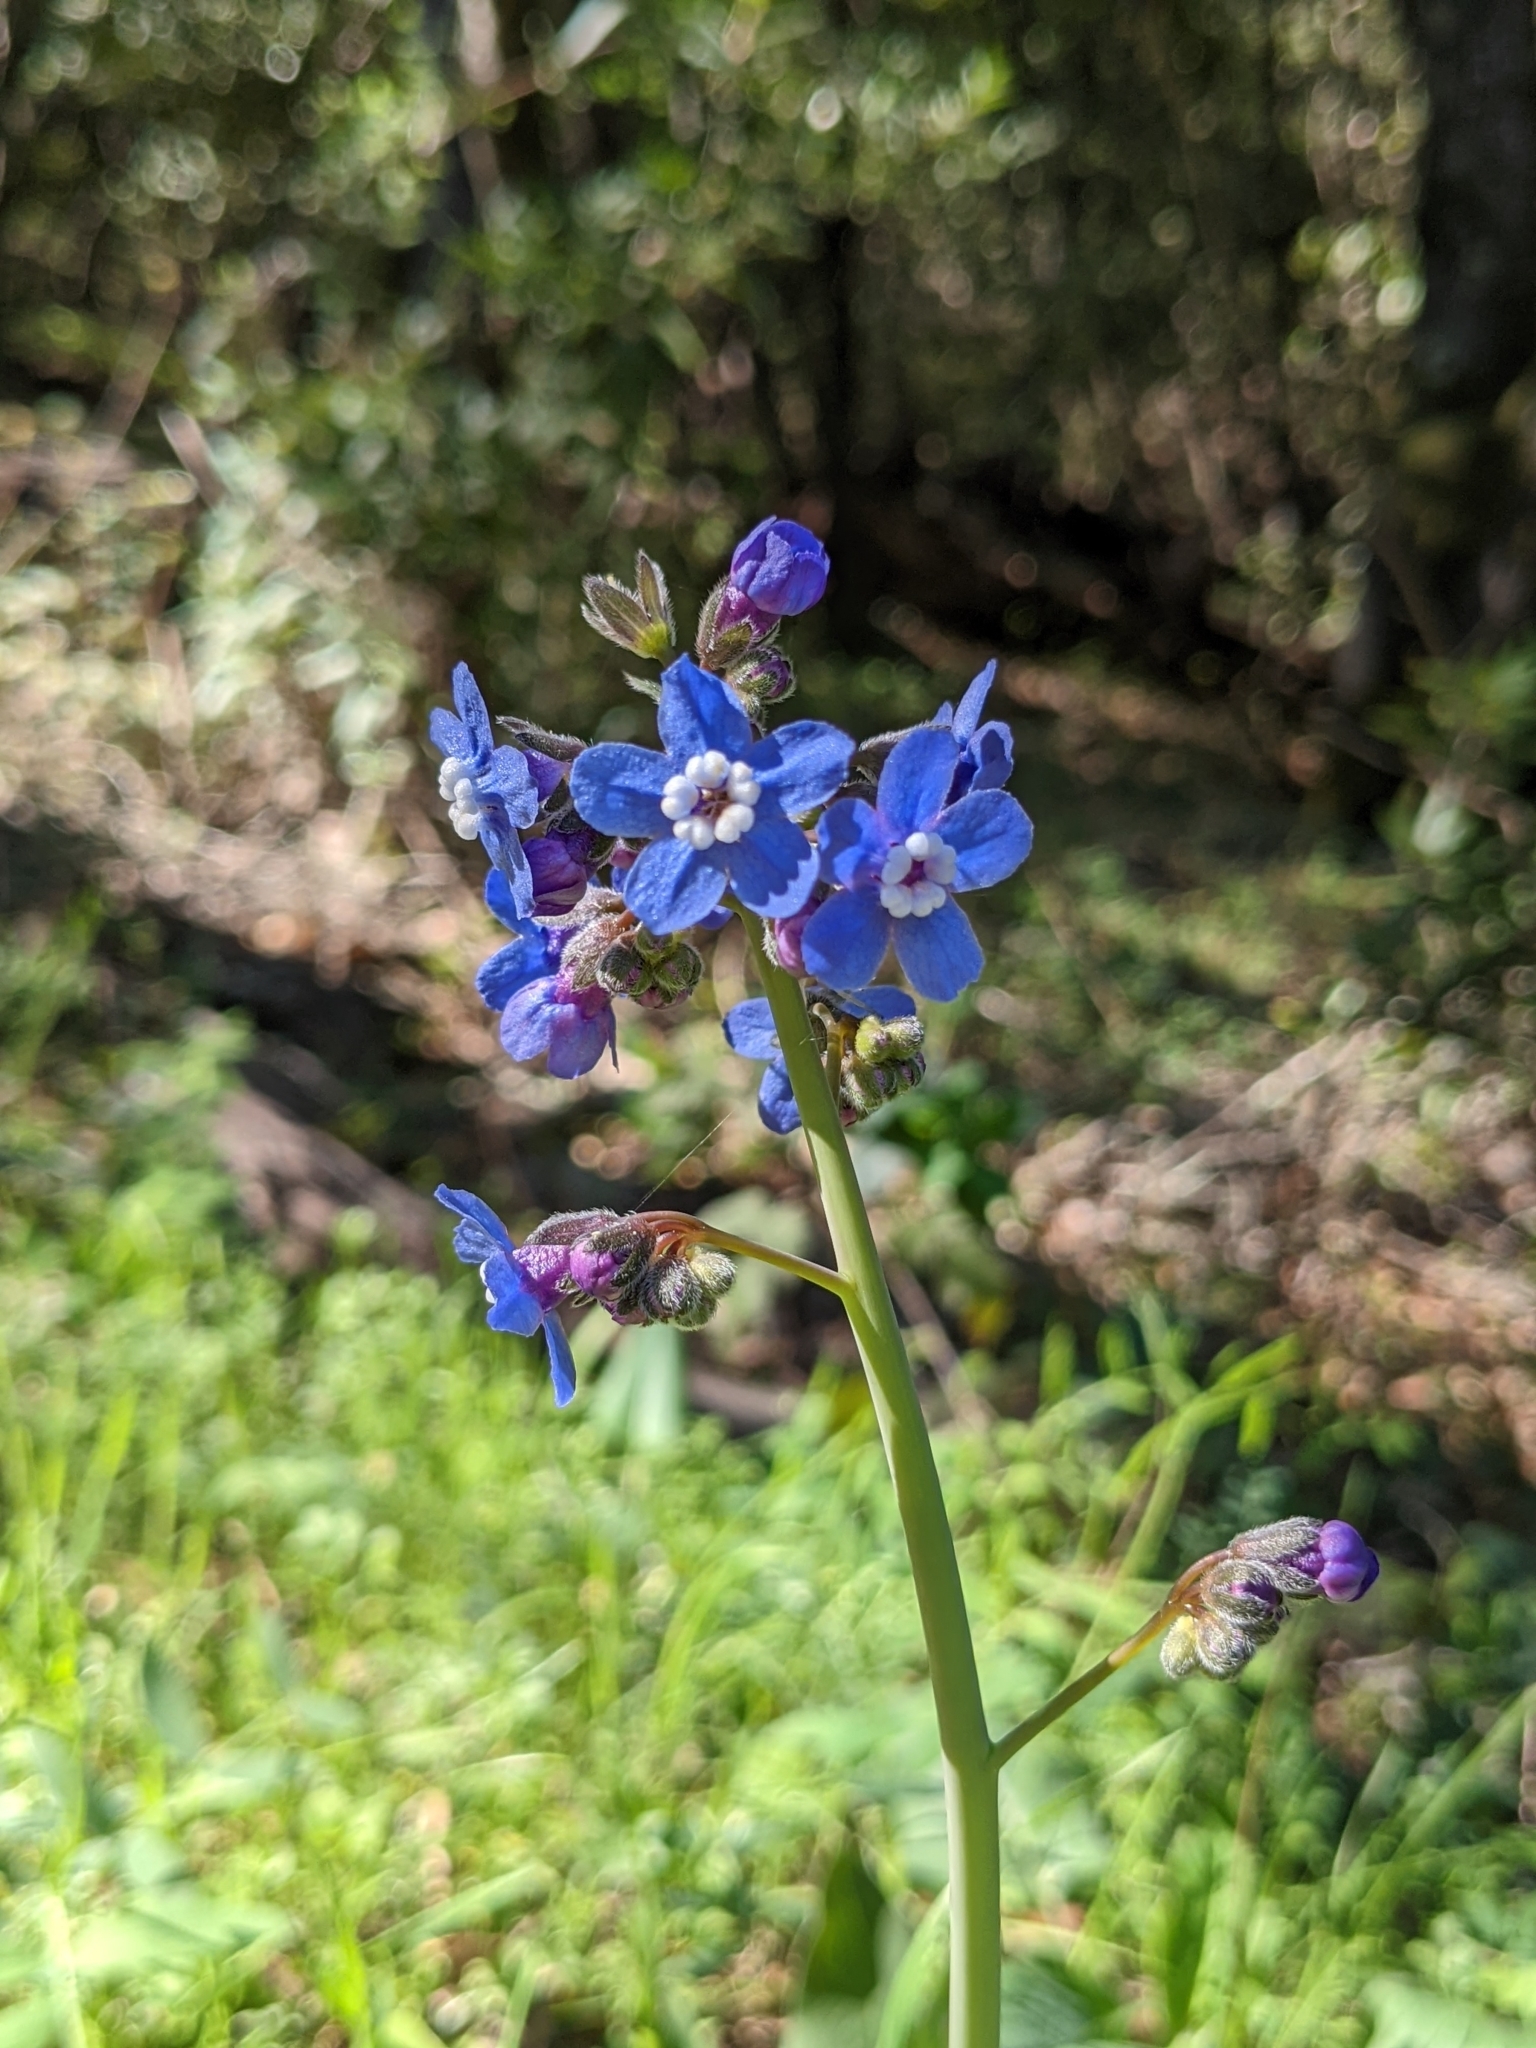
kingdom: Plantae
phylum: Tracheophyta
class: Magnoliopsida
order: Boraginales
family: Boraginaceae
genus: Adelinia
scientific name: Adelinia grande
